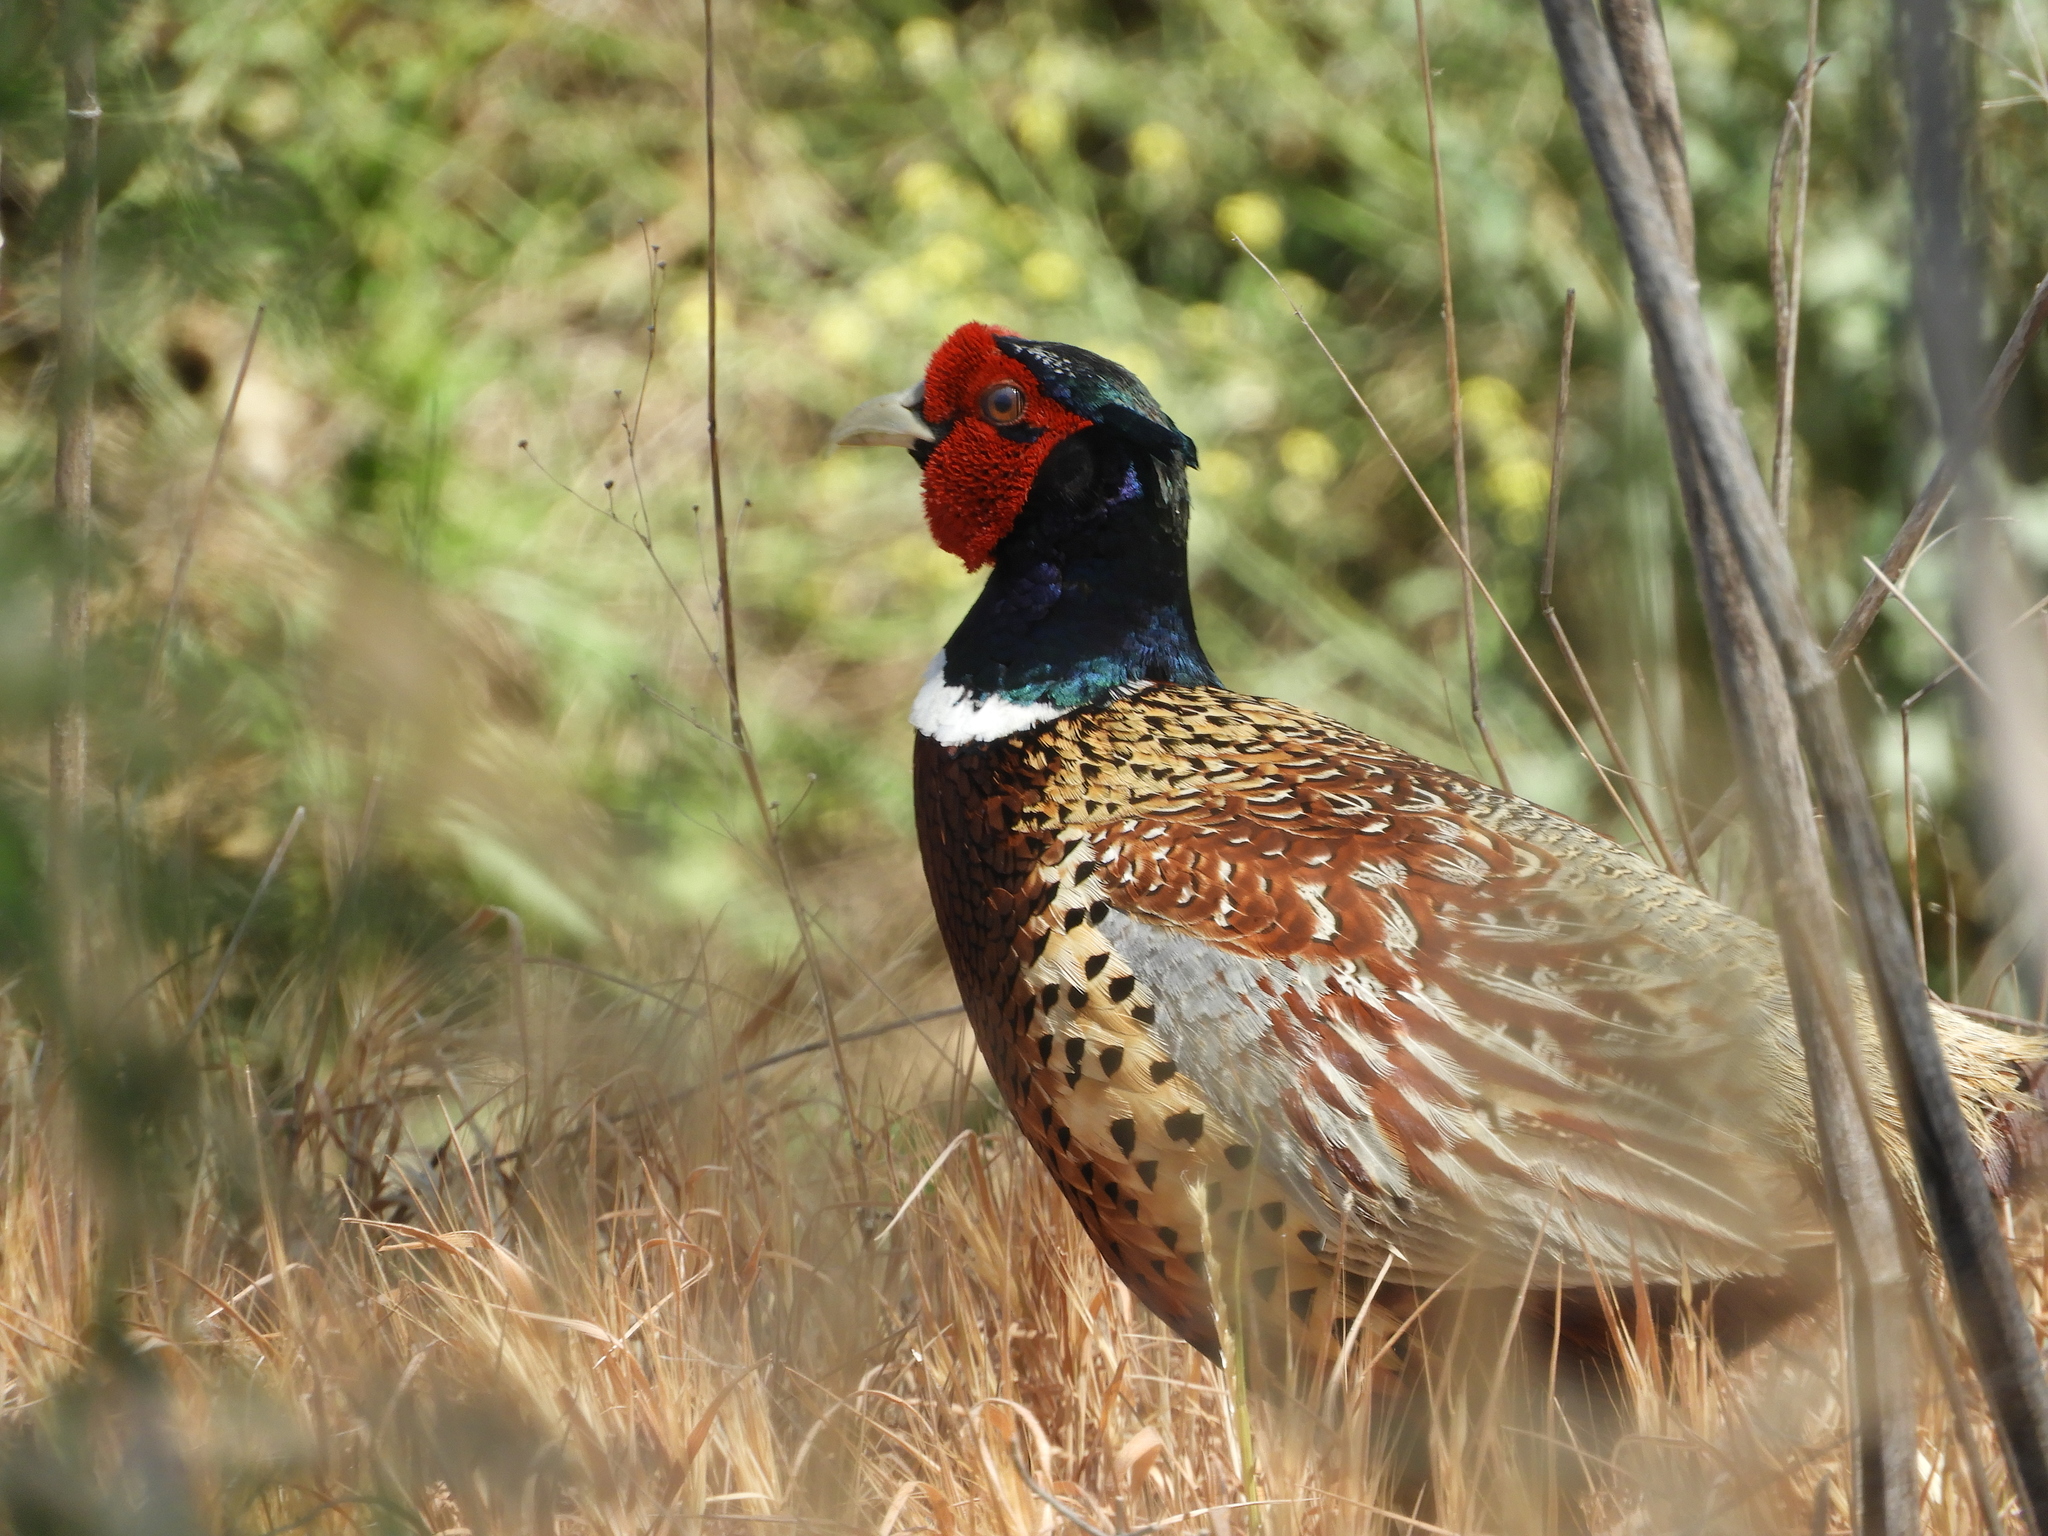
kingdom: Animalia
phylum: Chordata
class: Aves
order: Galliformes
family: Phasianidae
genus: Phasianus
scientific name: Phasianus colchicus
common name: Common pheasant
